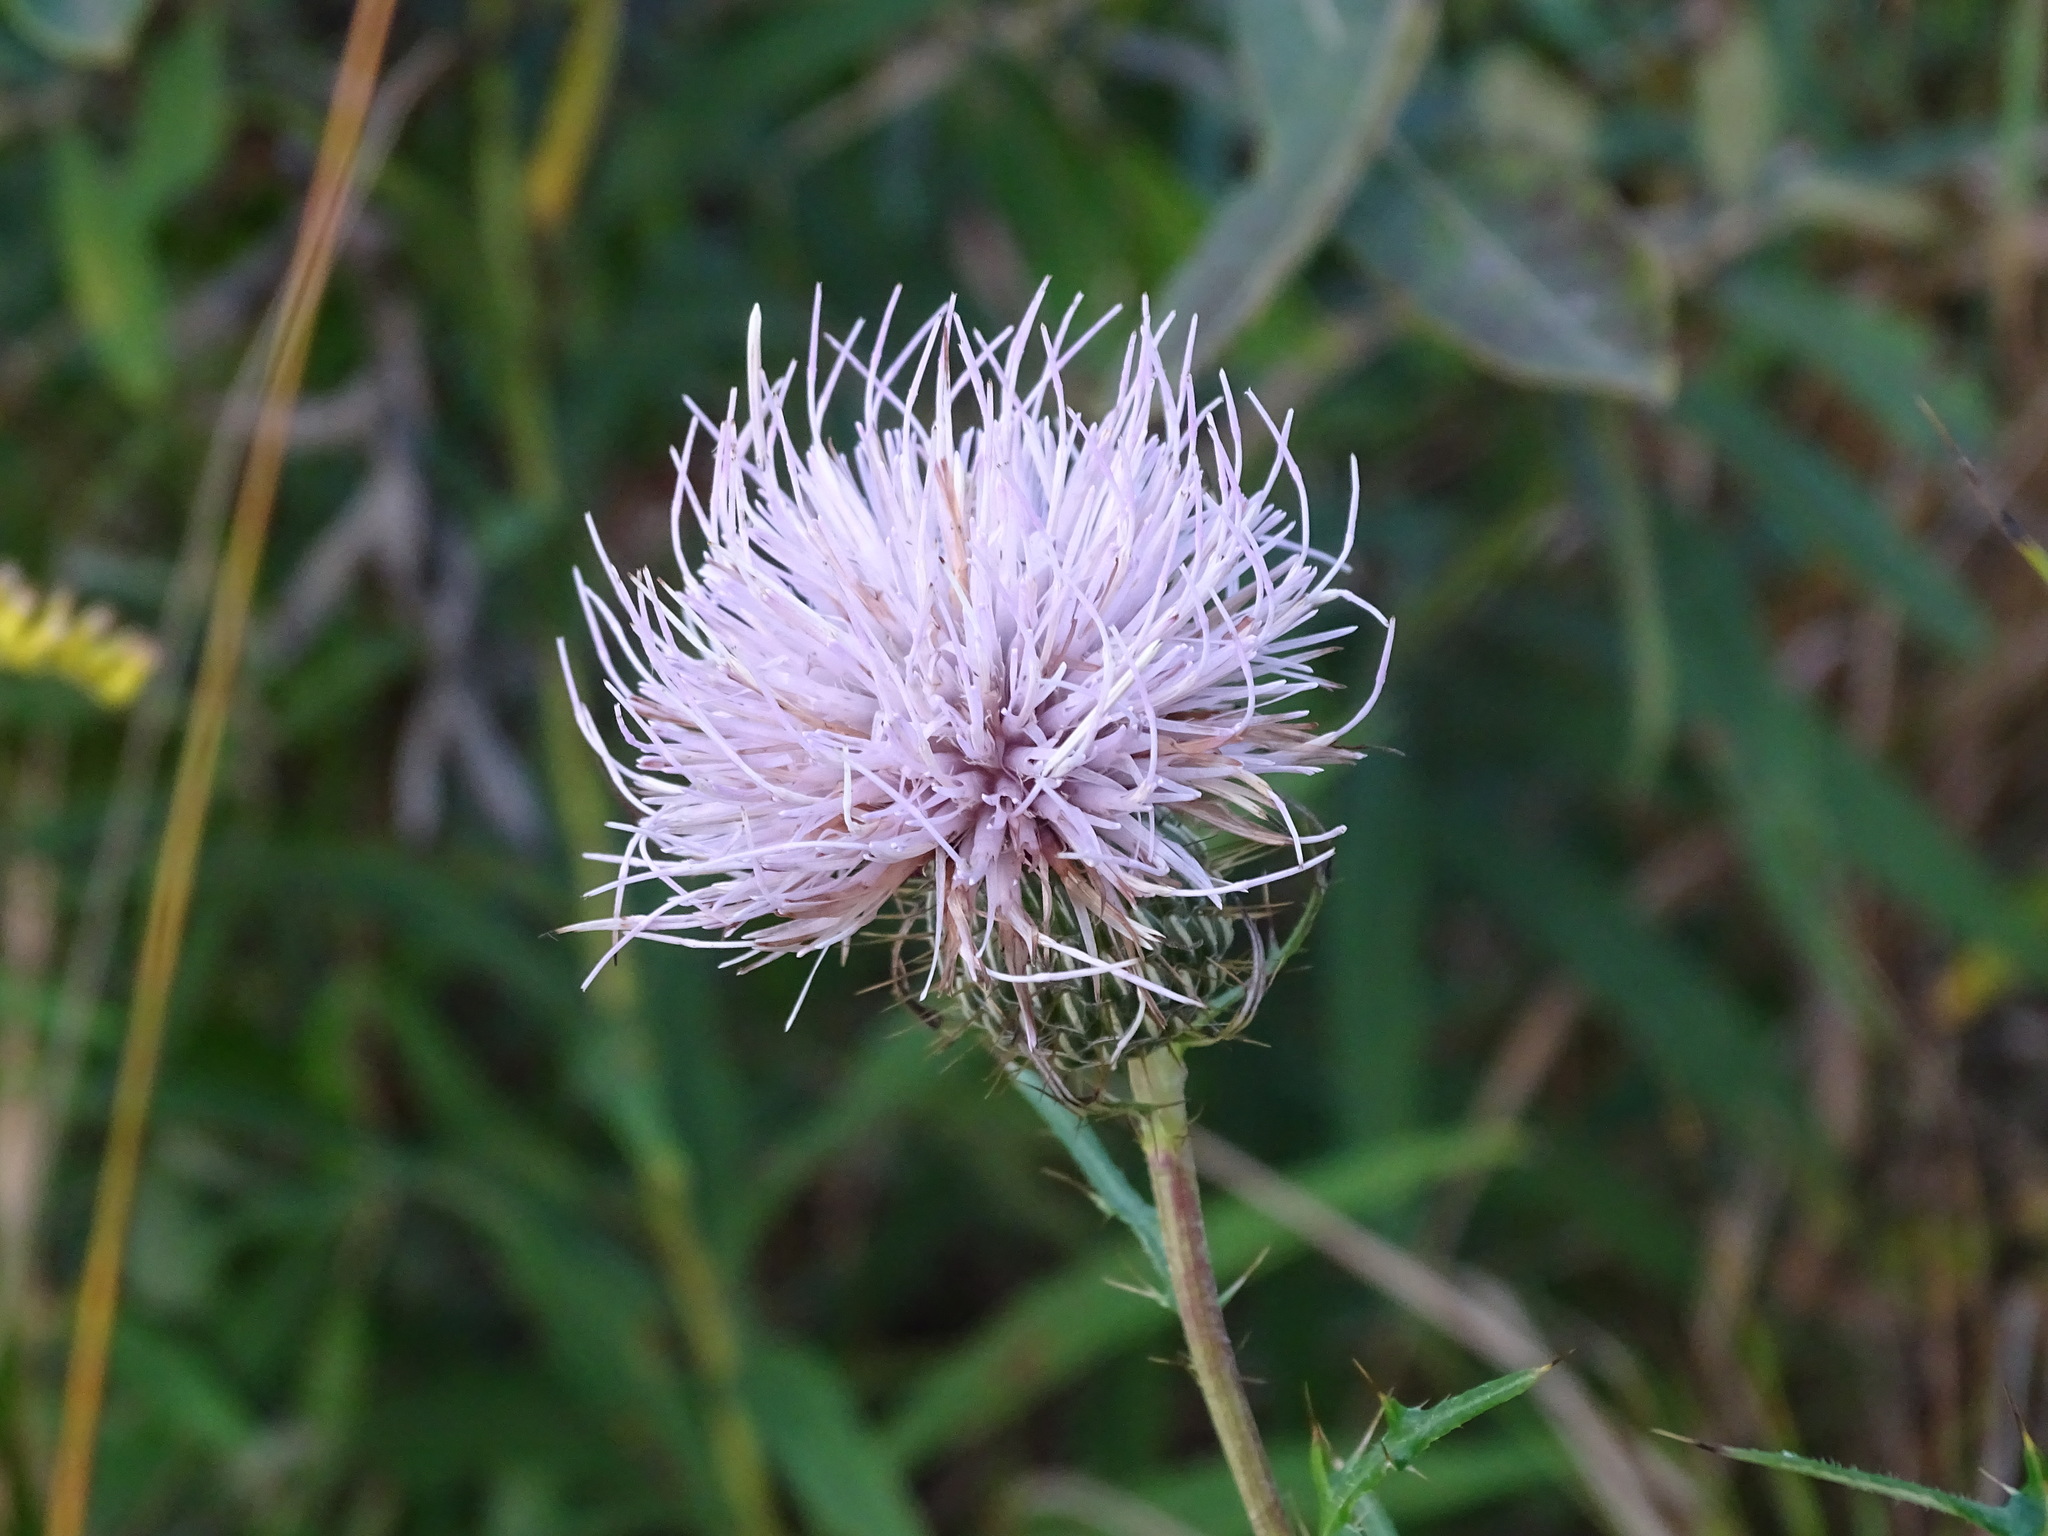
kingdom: Plantae
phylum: Tracheophyta
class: Magnoliopsida
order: Asterales
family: Asteraceae
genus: Cirsium
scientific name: Cirsium discolor
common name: Field thistle
